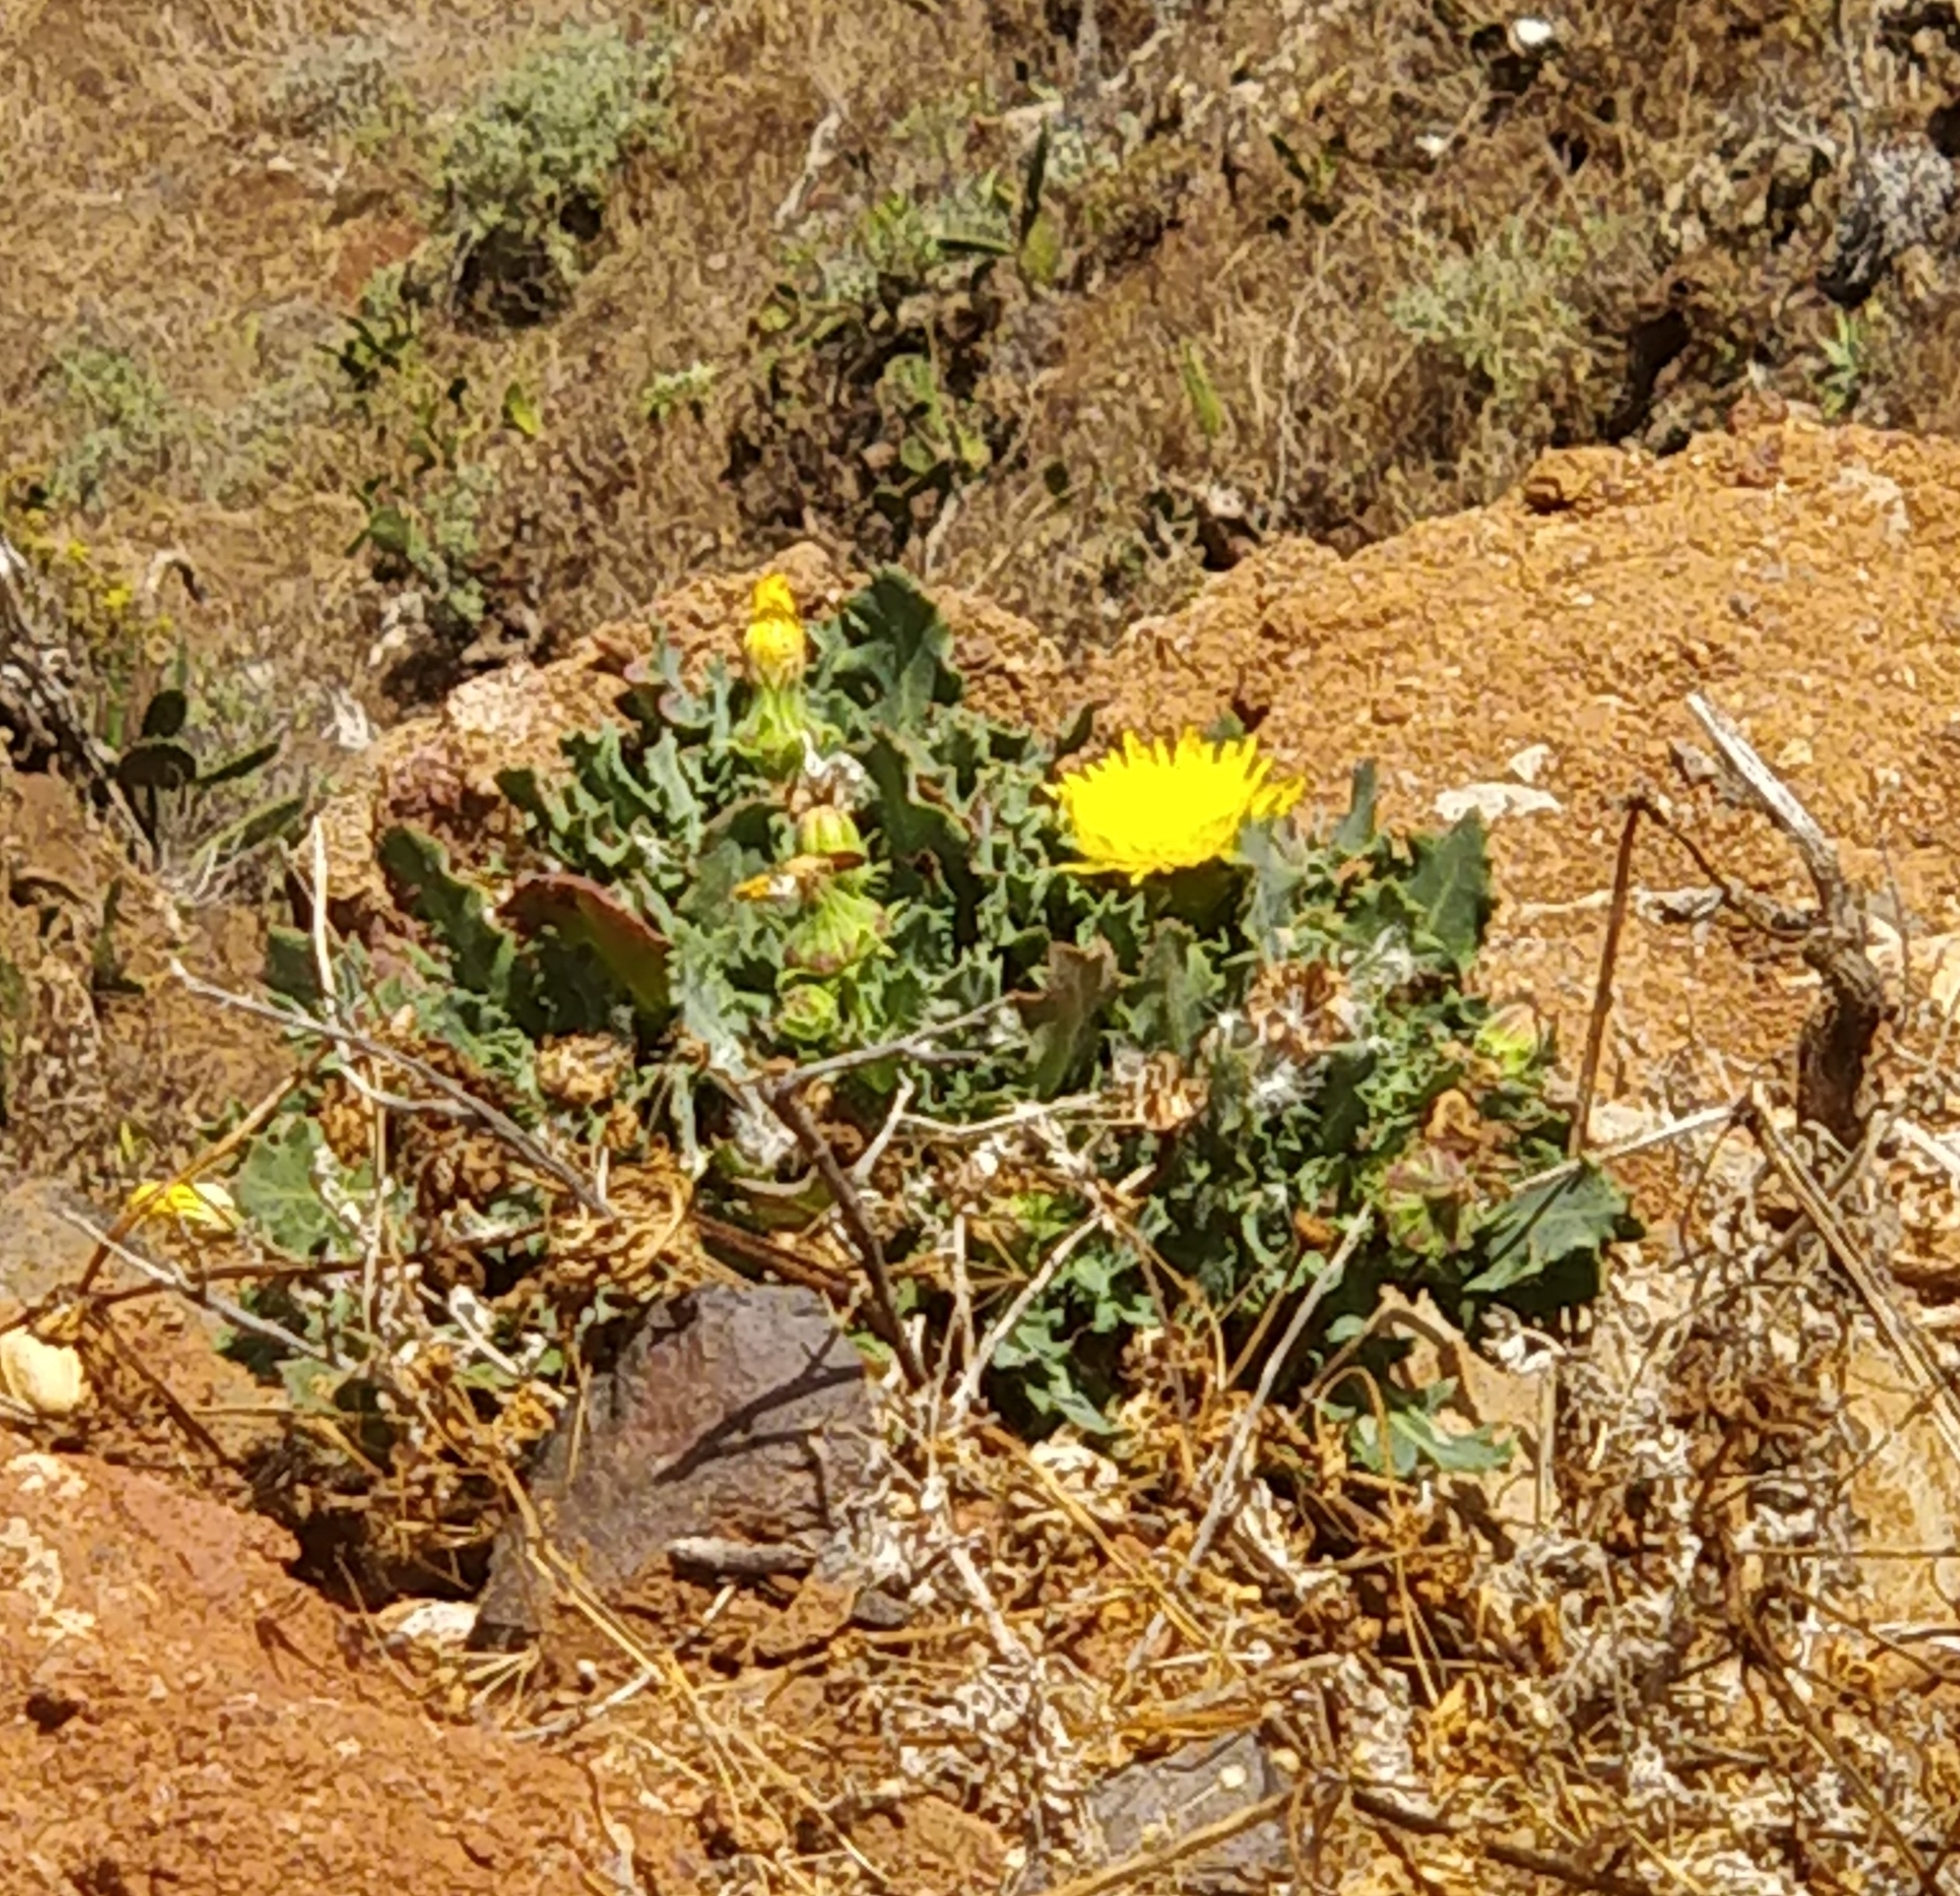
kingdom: Plantae
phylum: Tracheophyta
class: Magnoliopsida
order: Asterales
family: Asteraceae
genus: Reichardia
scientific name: Reichardia ligulata
